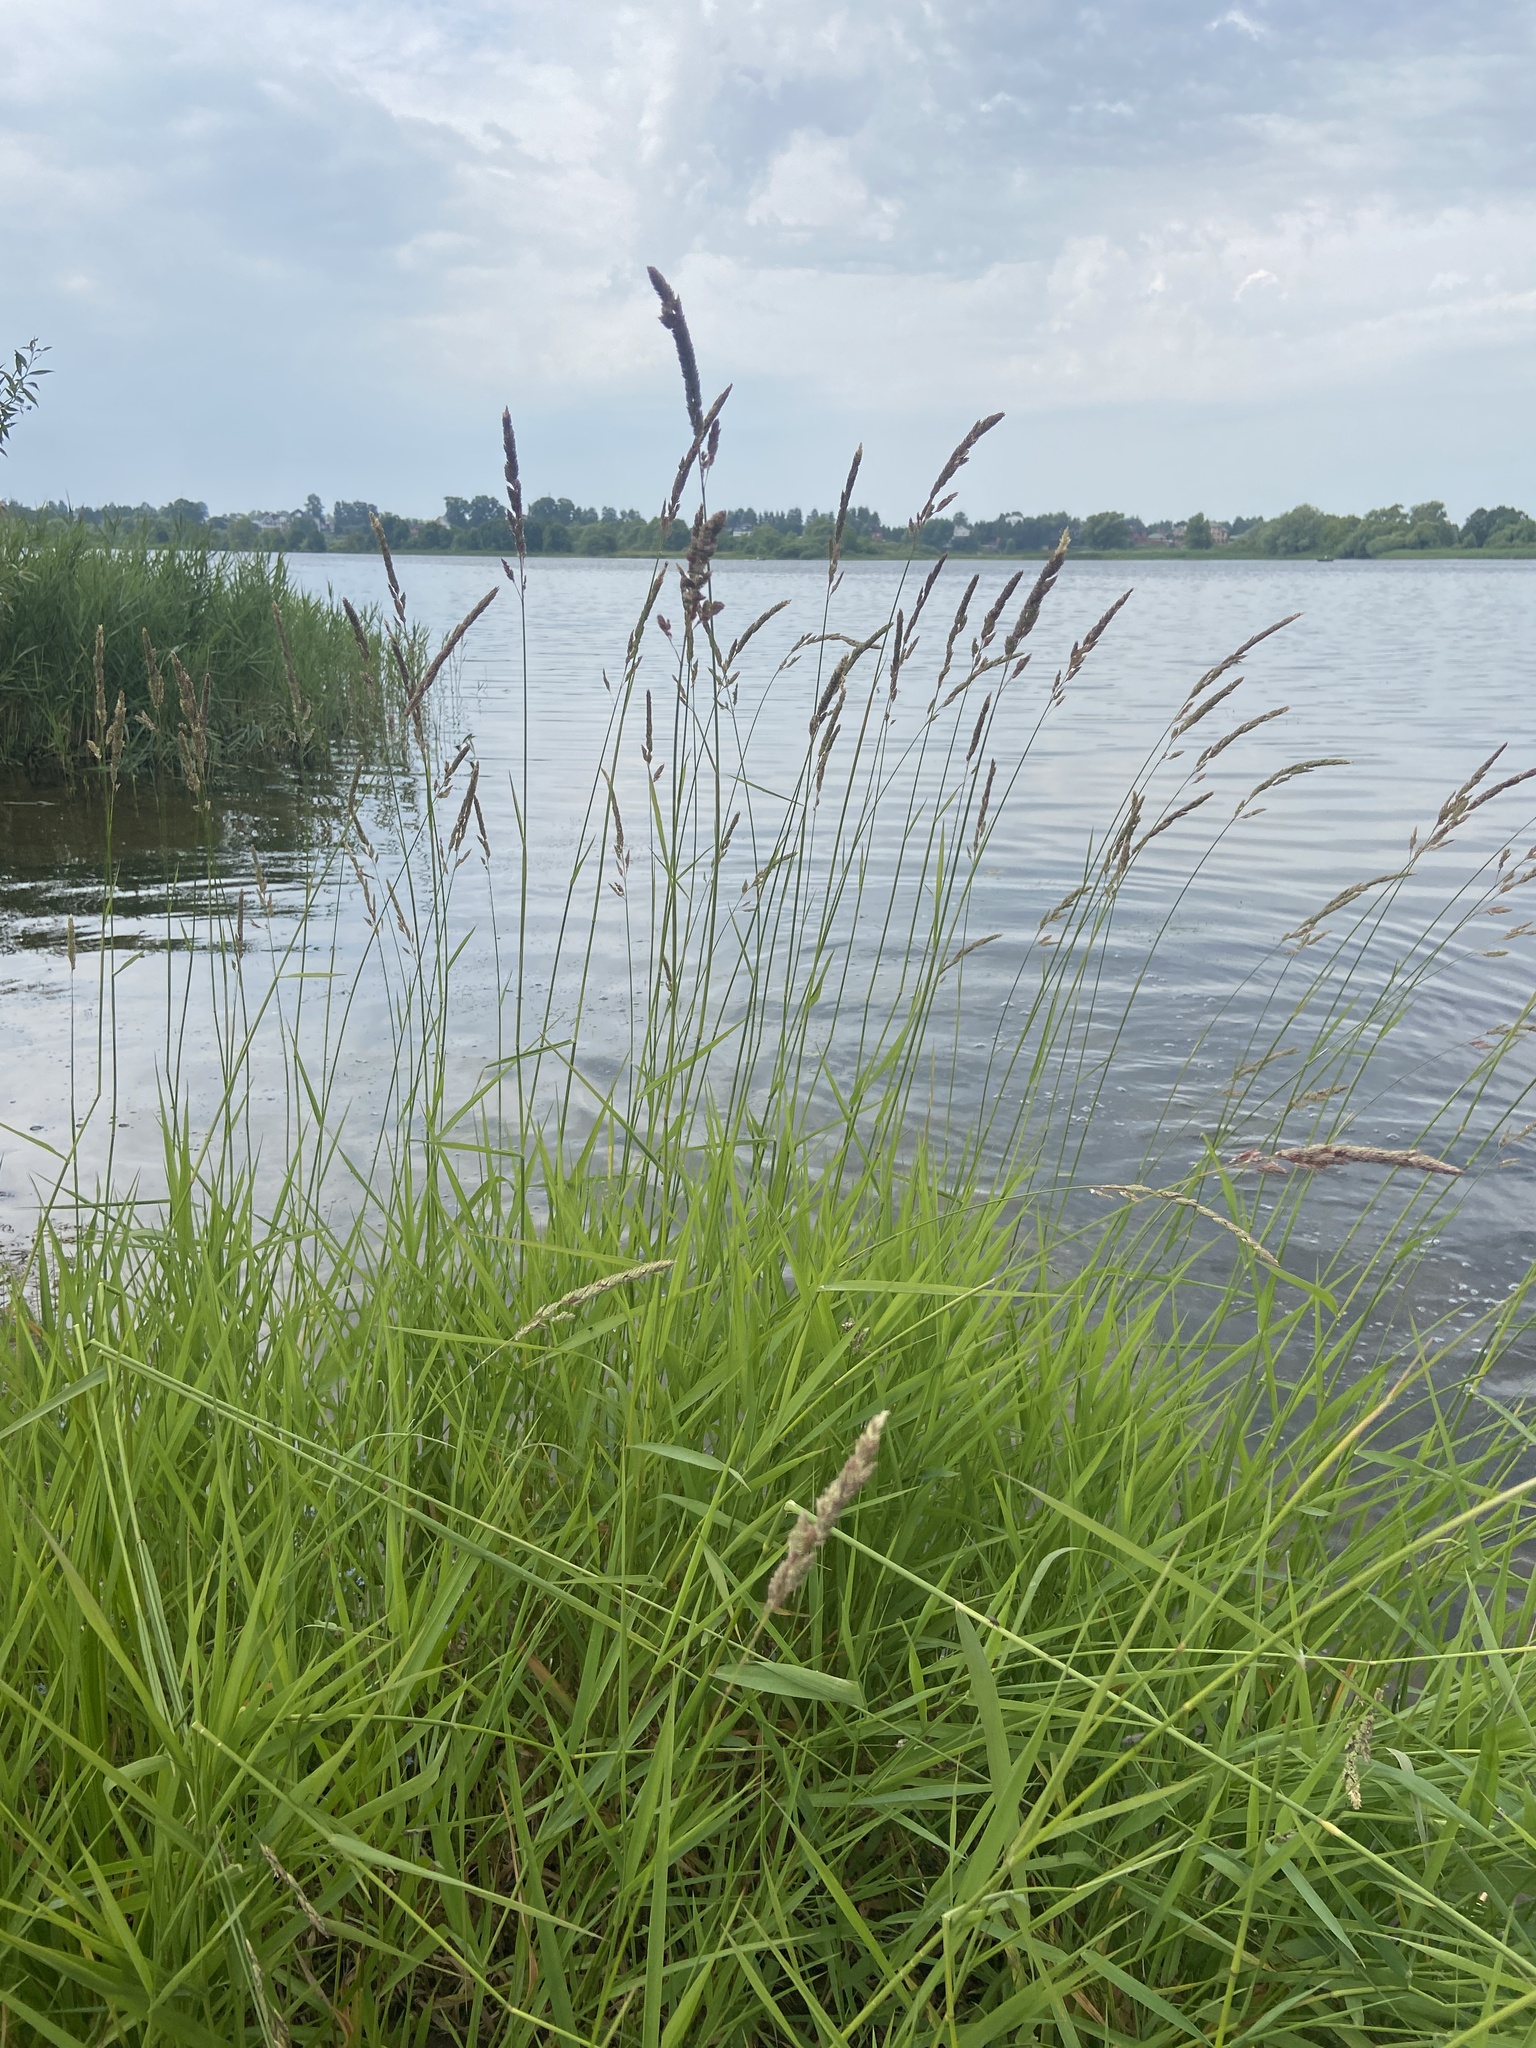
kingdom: Plantae
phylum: Tracheophyta
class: Liliopsida
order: Poales
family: Poaceae
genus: Phalaris
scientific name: Phalaris arundinacea
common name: Reed canary-grass
